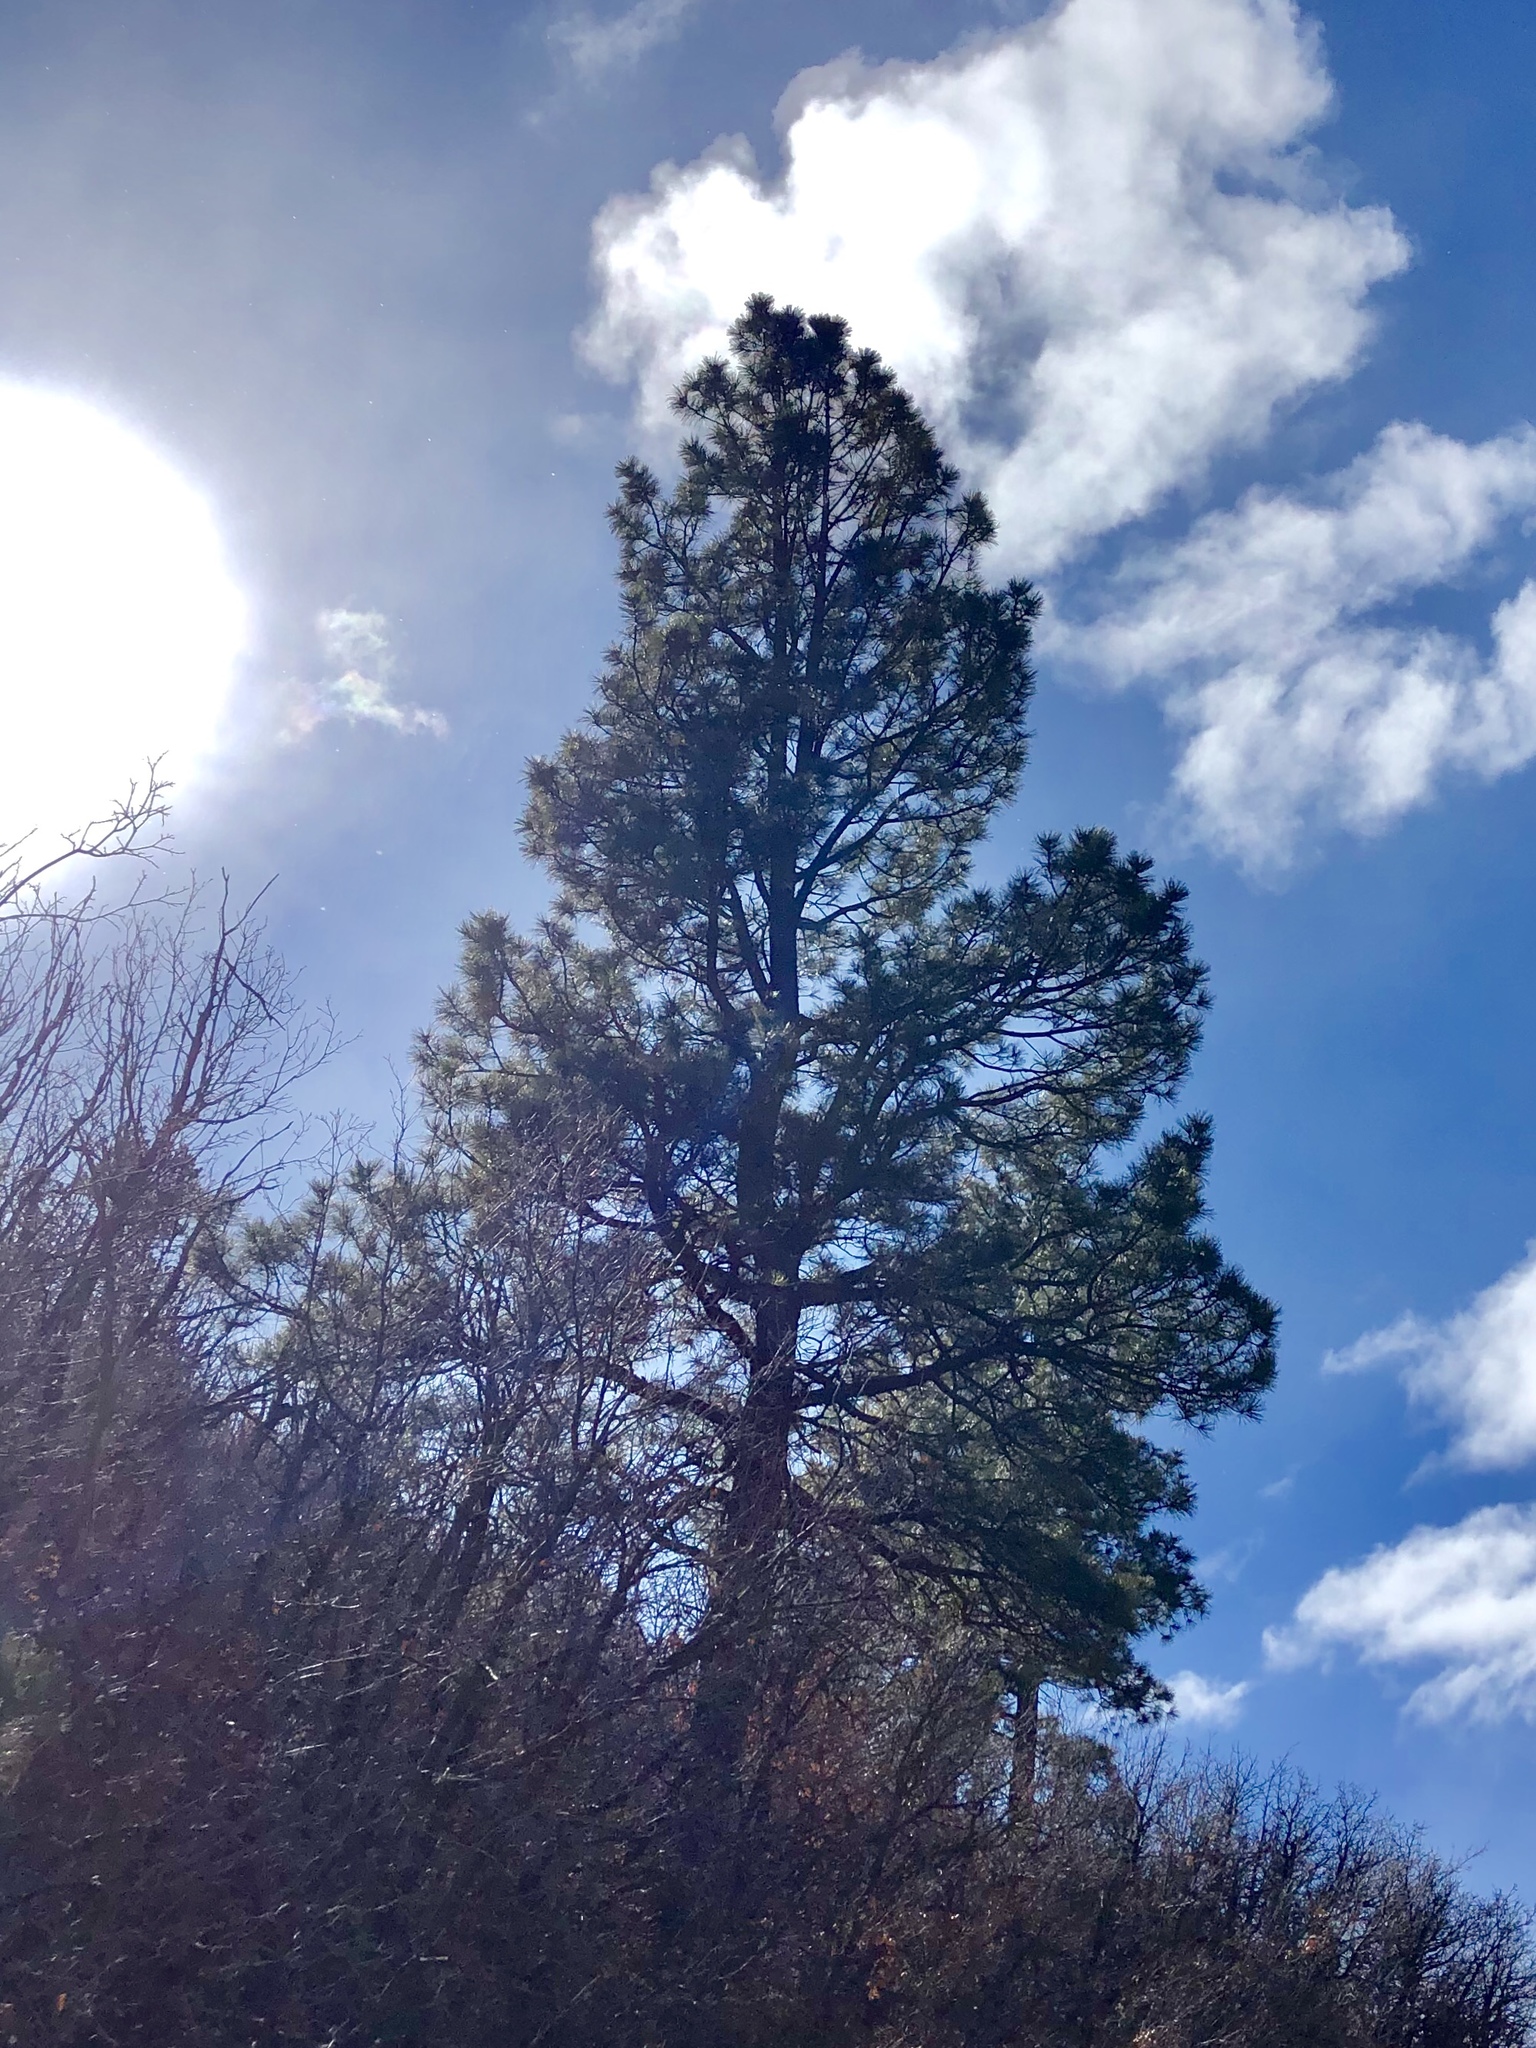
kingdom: Plantae
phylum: Tracheophyta
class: Pinopsida
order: Pinales
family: Pinaceae
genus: Pinus
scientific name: Pinus ponderosa
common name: Western yellow-pine
